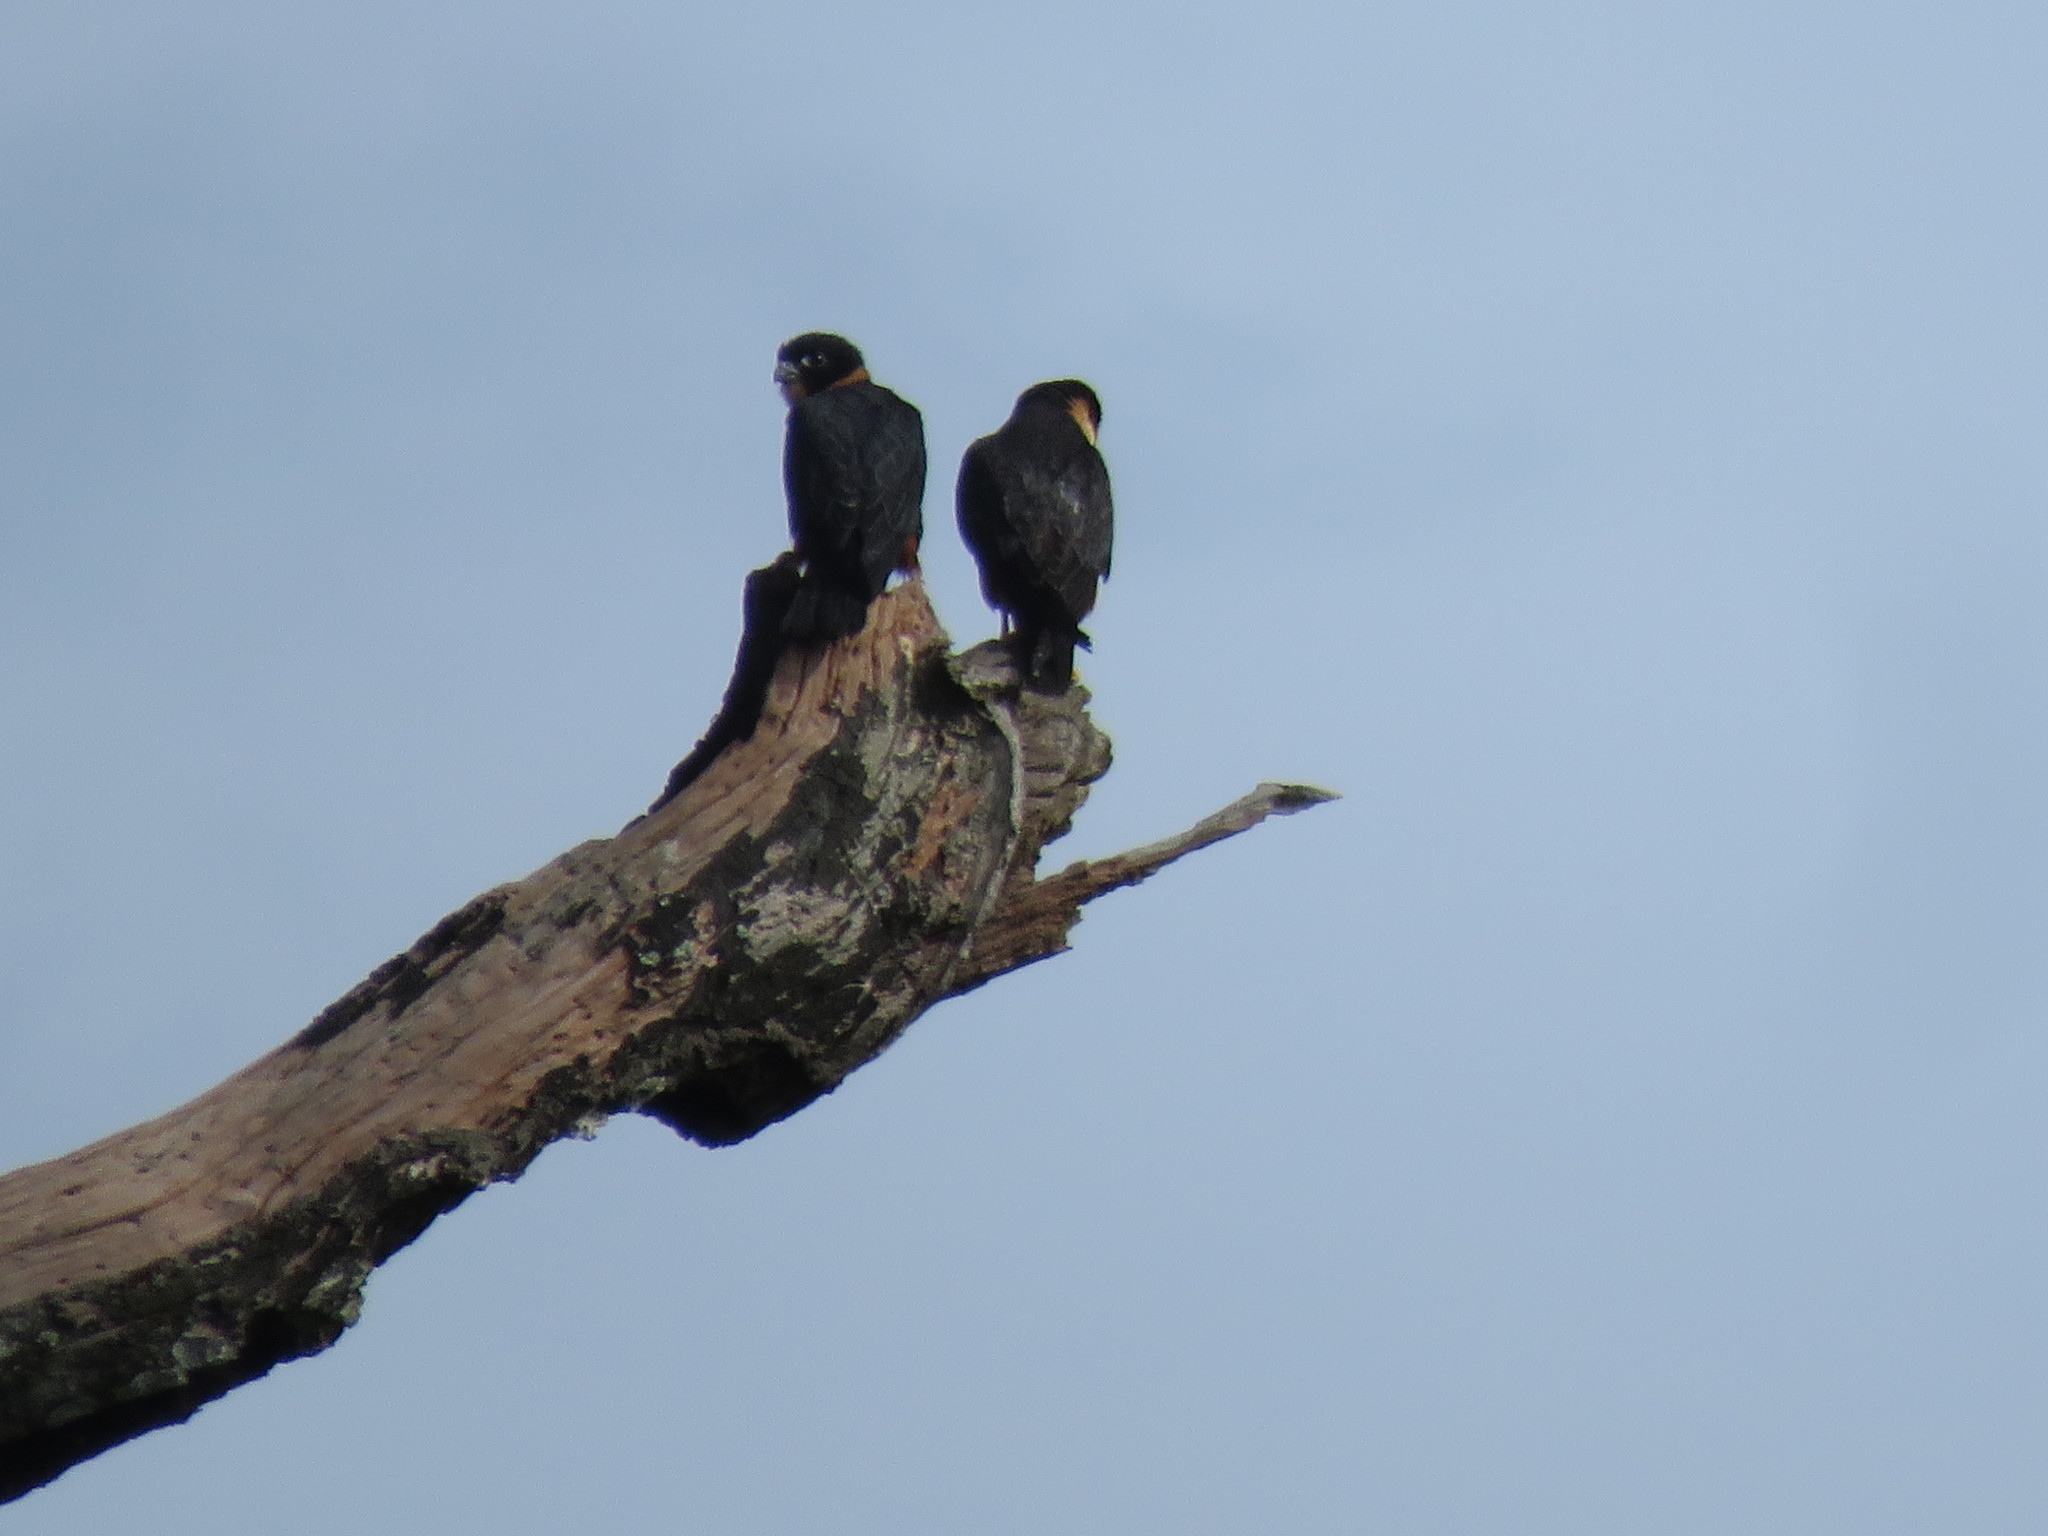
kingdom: Animalia
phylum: Chordata
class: Aves
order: Falconiformes
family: Falconidae
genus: Falco
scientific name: Falco rufigularis
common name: Bat falcon
